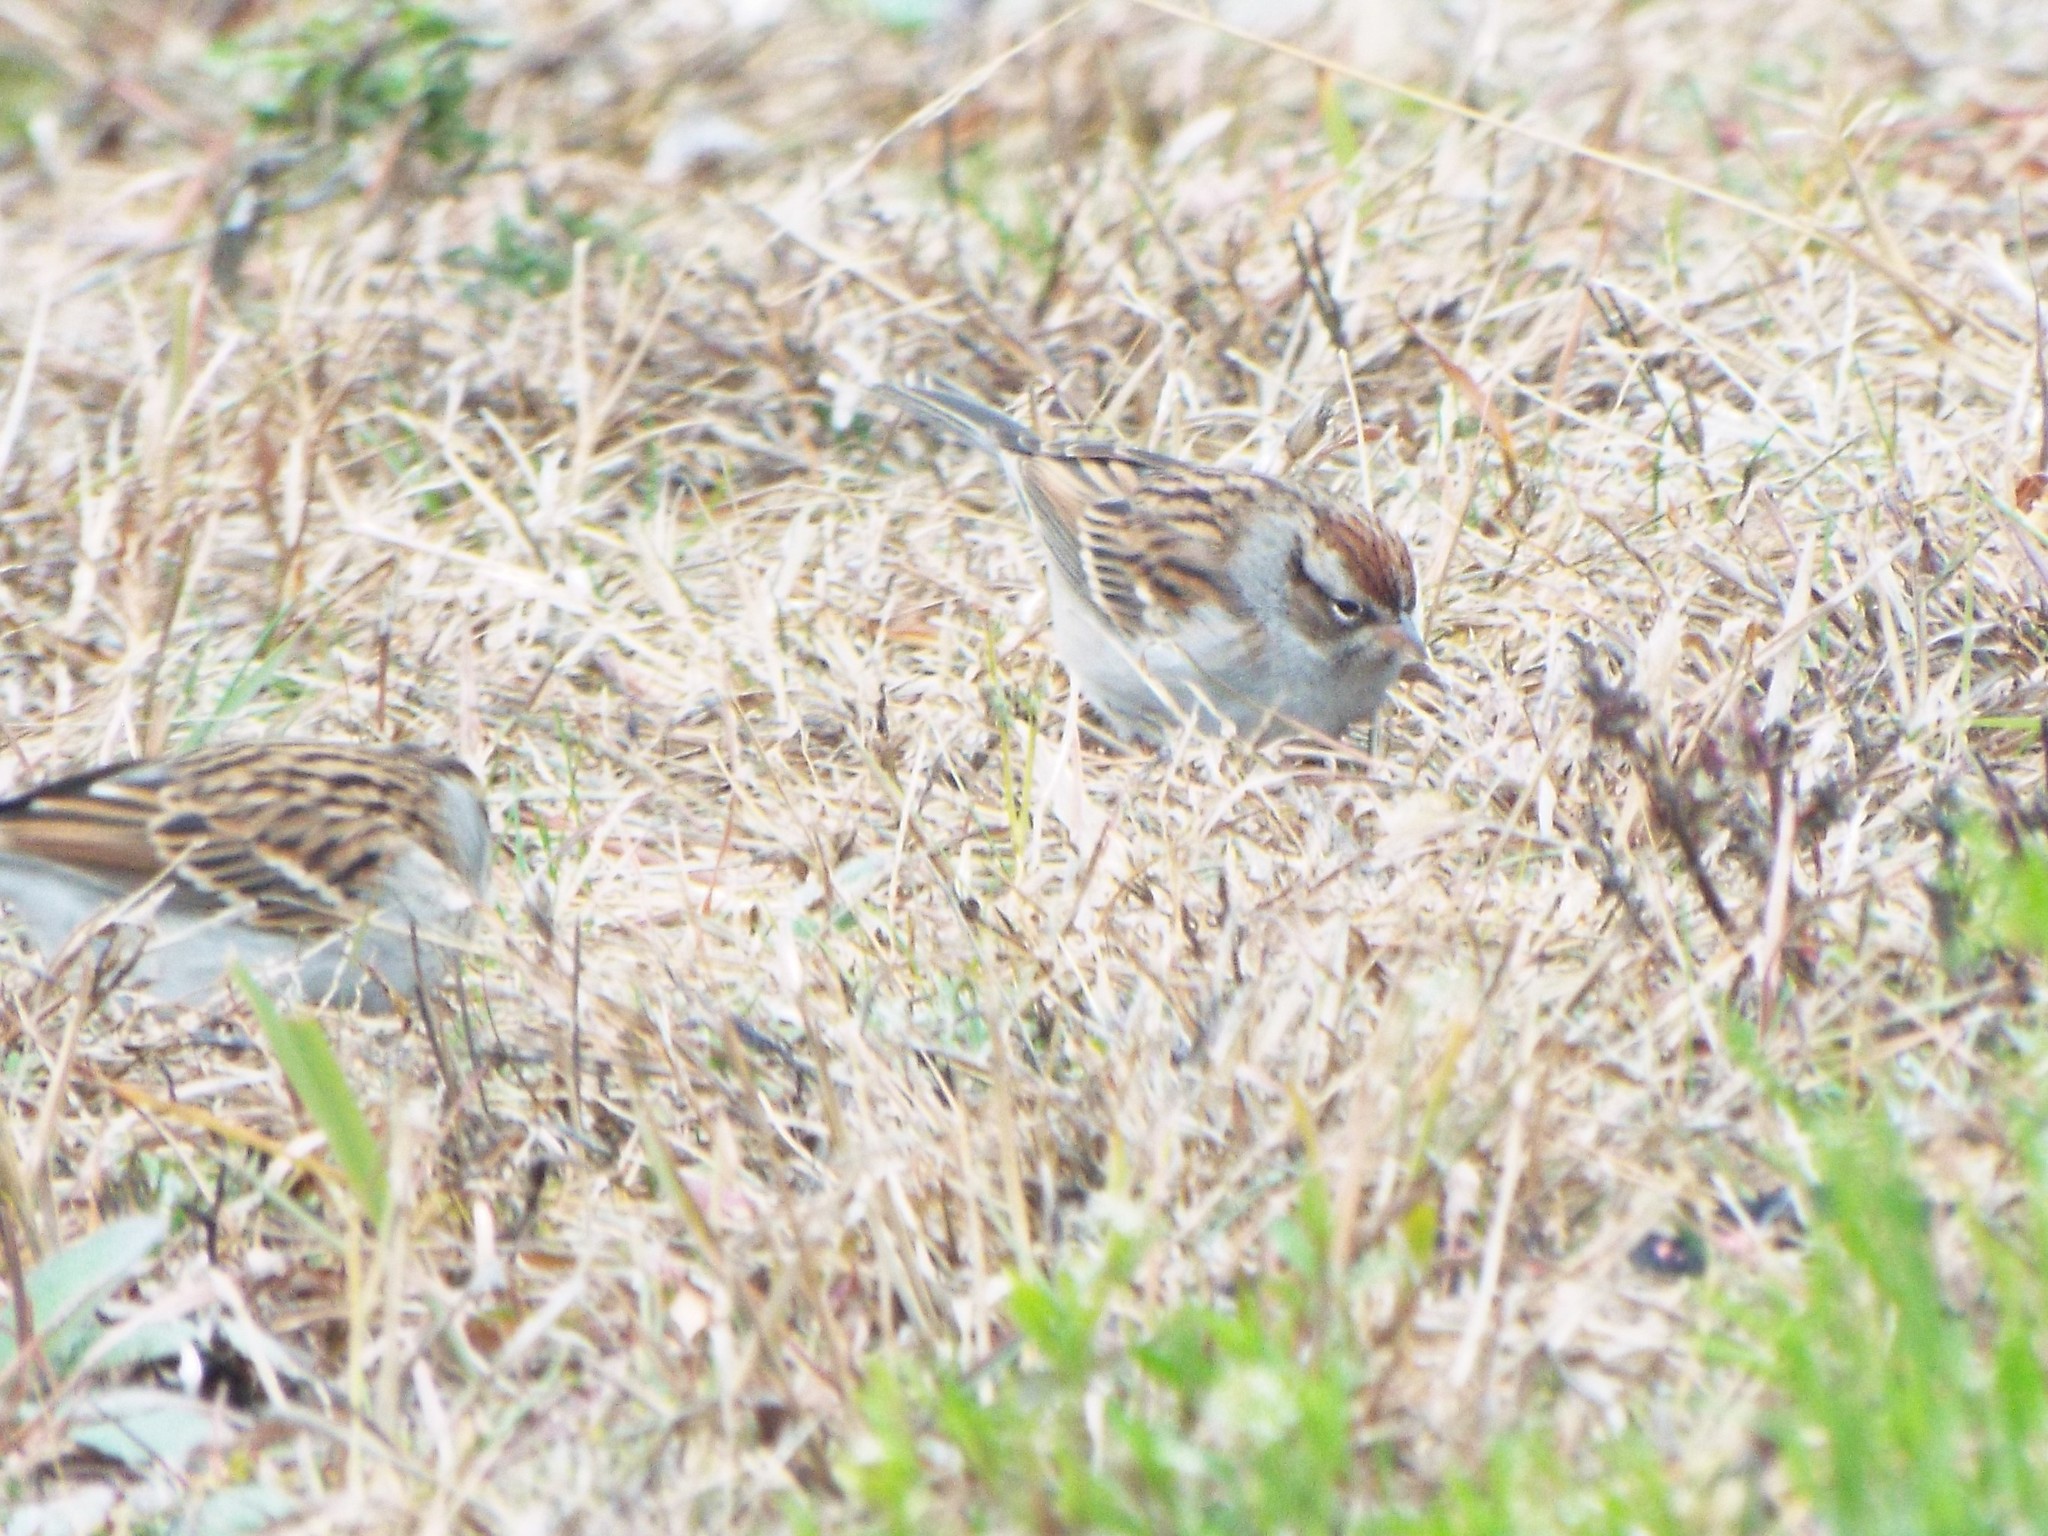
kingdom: Animalia
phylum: Chordata
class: Aves
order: Passeriformes
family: Passerellidae
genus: Spizella
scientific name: Spizella passerina
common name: Chipping sparrow
